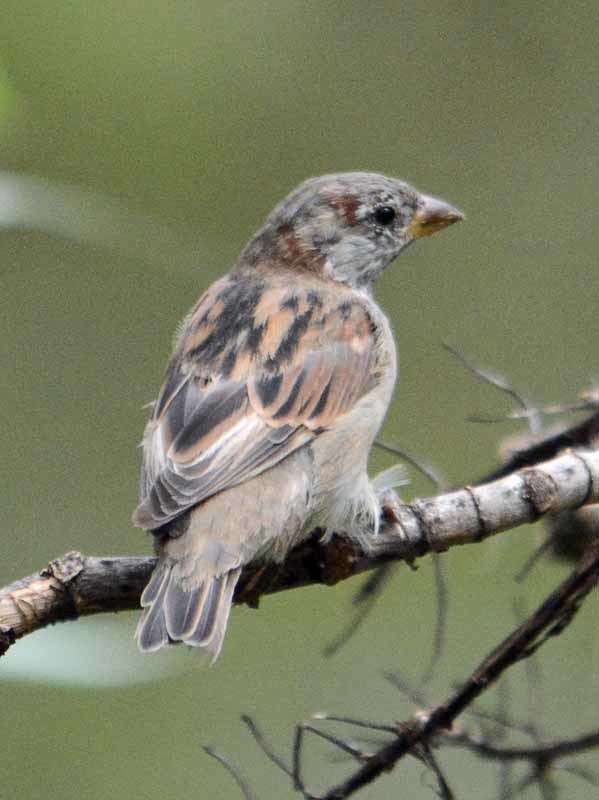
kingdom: Animalia
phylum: Chordata
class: Aves
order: Passeriformes
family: Passeridae
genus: Passer
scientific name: Passer domesticus
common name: House sparrow
